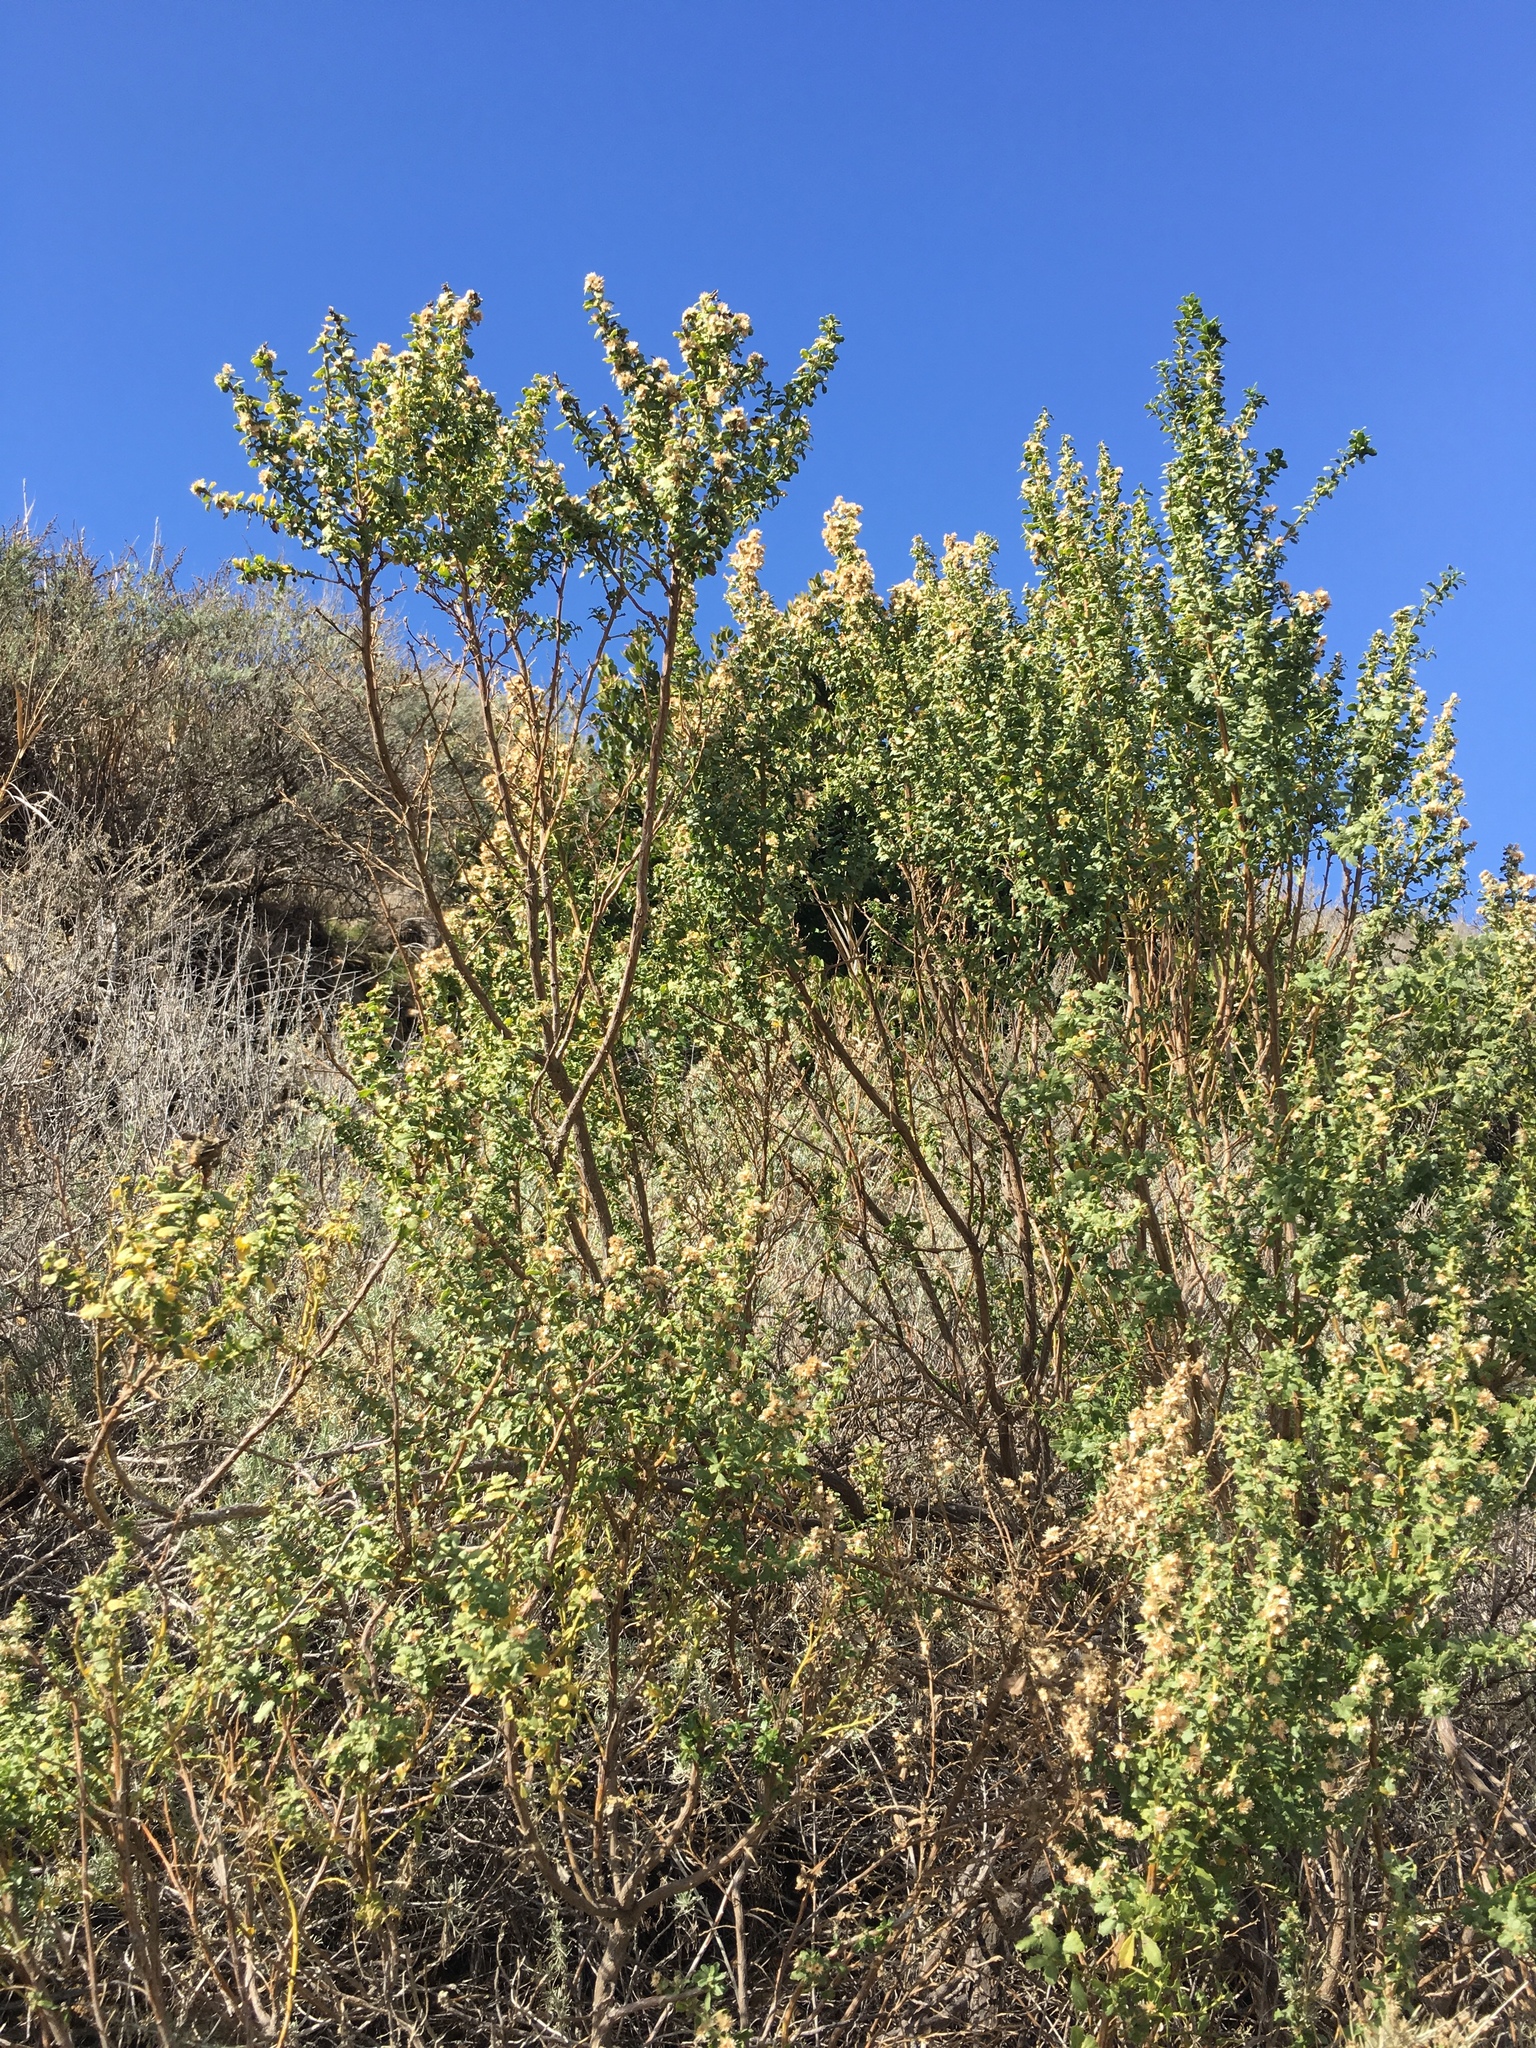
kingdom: Plantae
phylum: Tracheophyta
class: Magnoliopsida
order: Asterales
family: Asteraceae
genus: Baccharis
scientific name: Baccharis pilularis
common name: Coyotebrush
